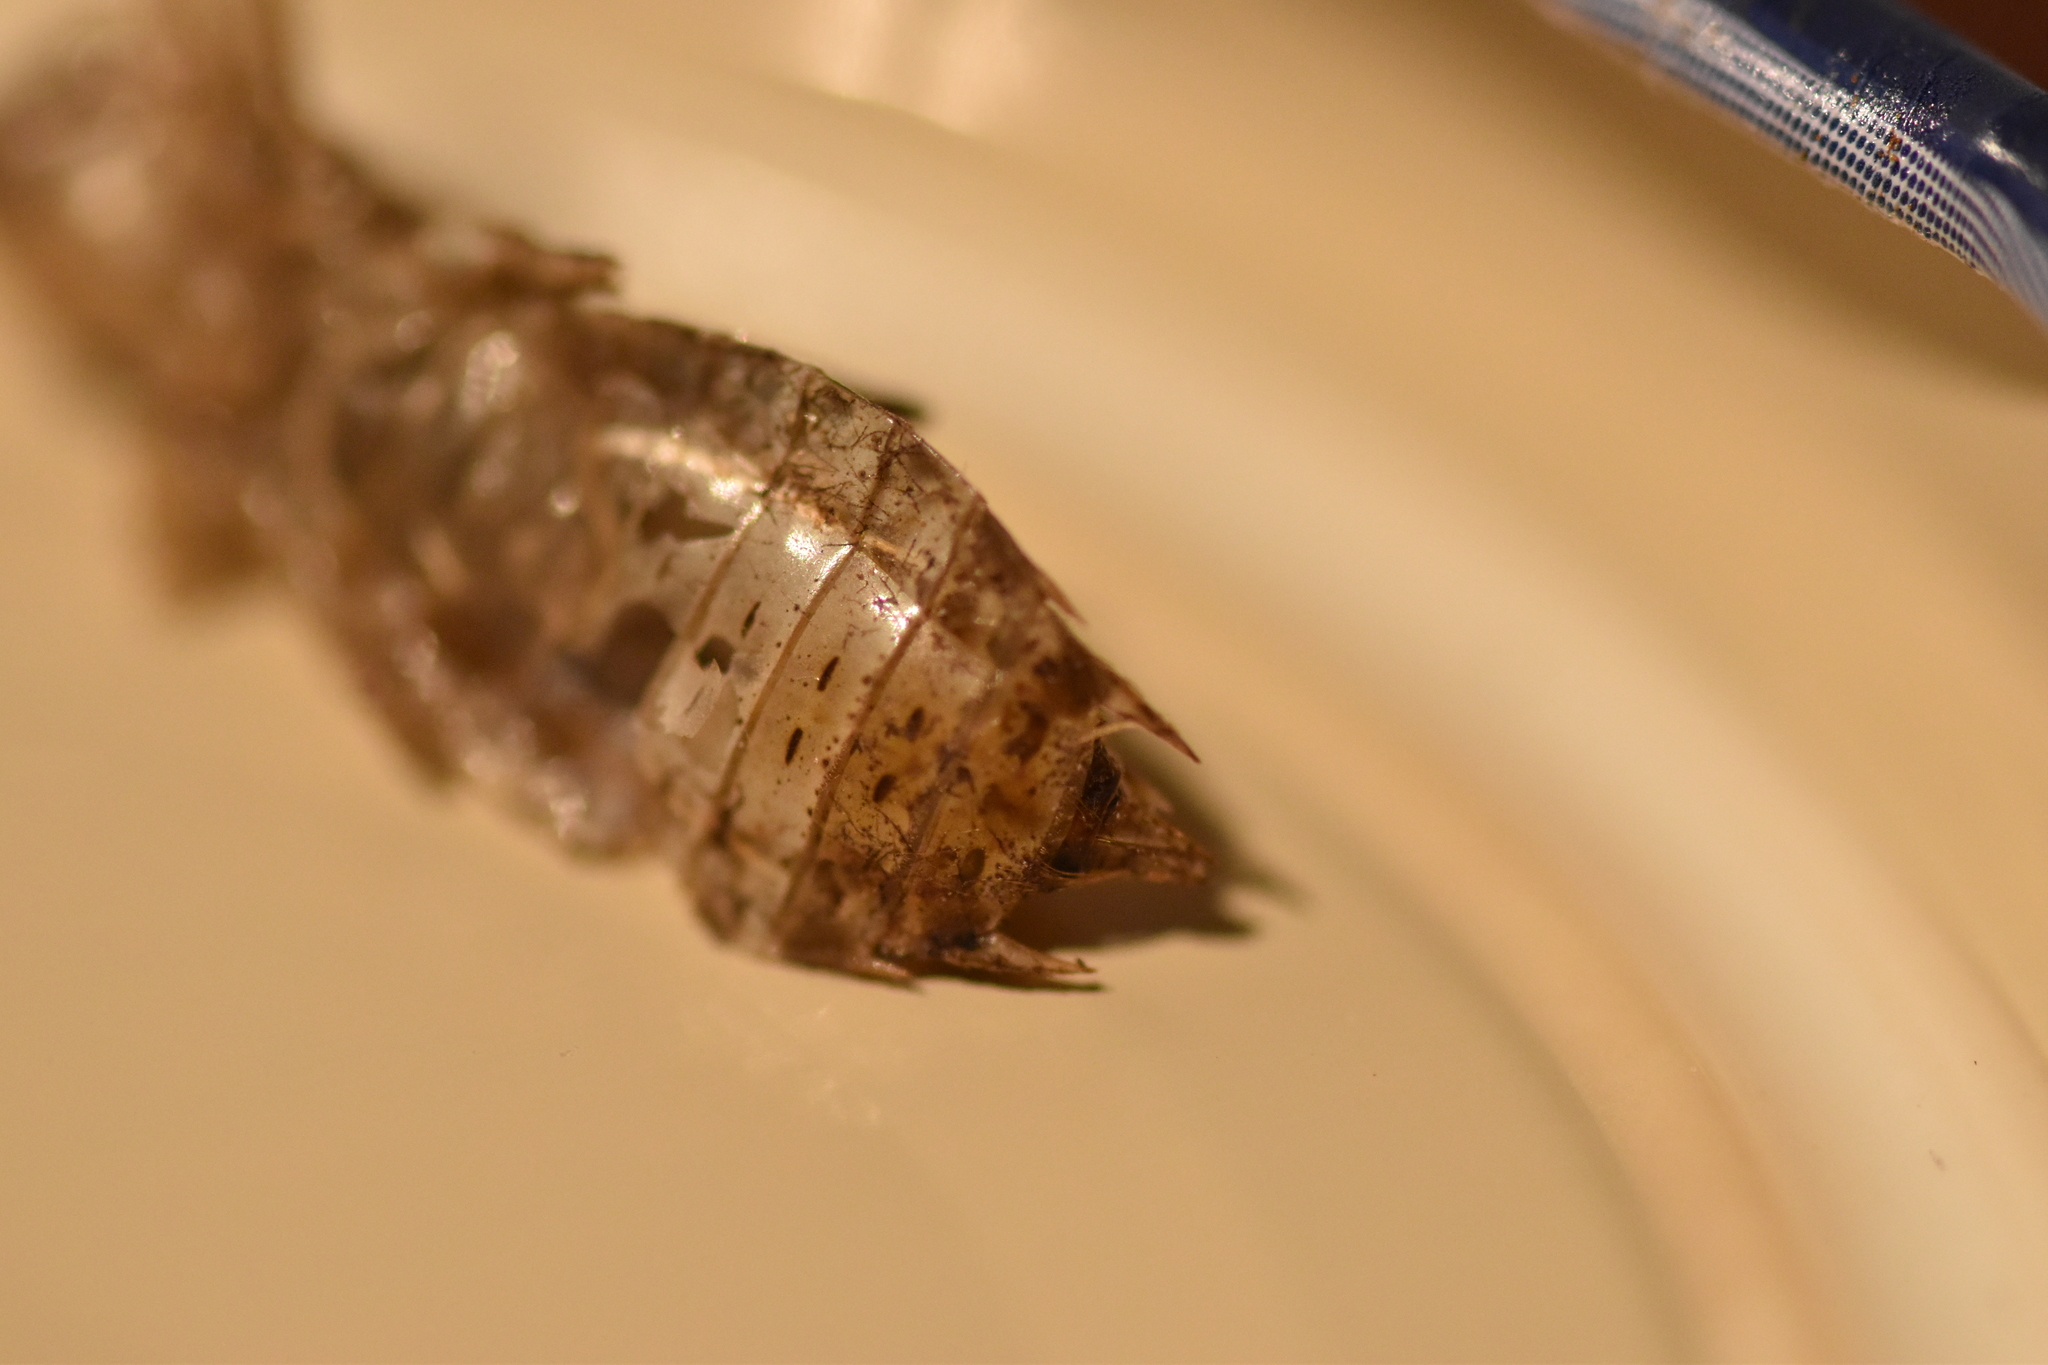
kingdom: Animalia
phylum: Arthropoda
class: Insecta
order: Odonata
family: Libellulidae
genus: Sympetrum
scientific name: Sympetrum striolatum
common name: Common darter
